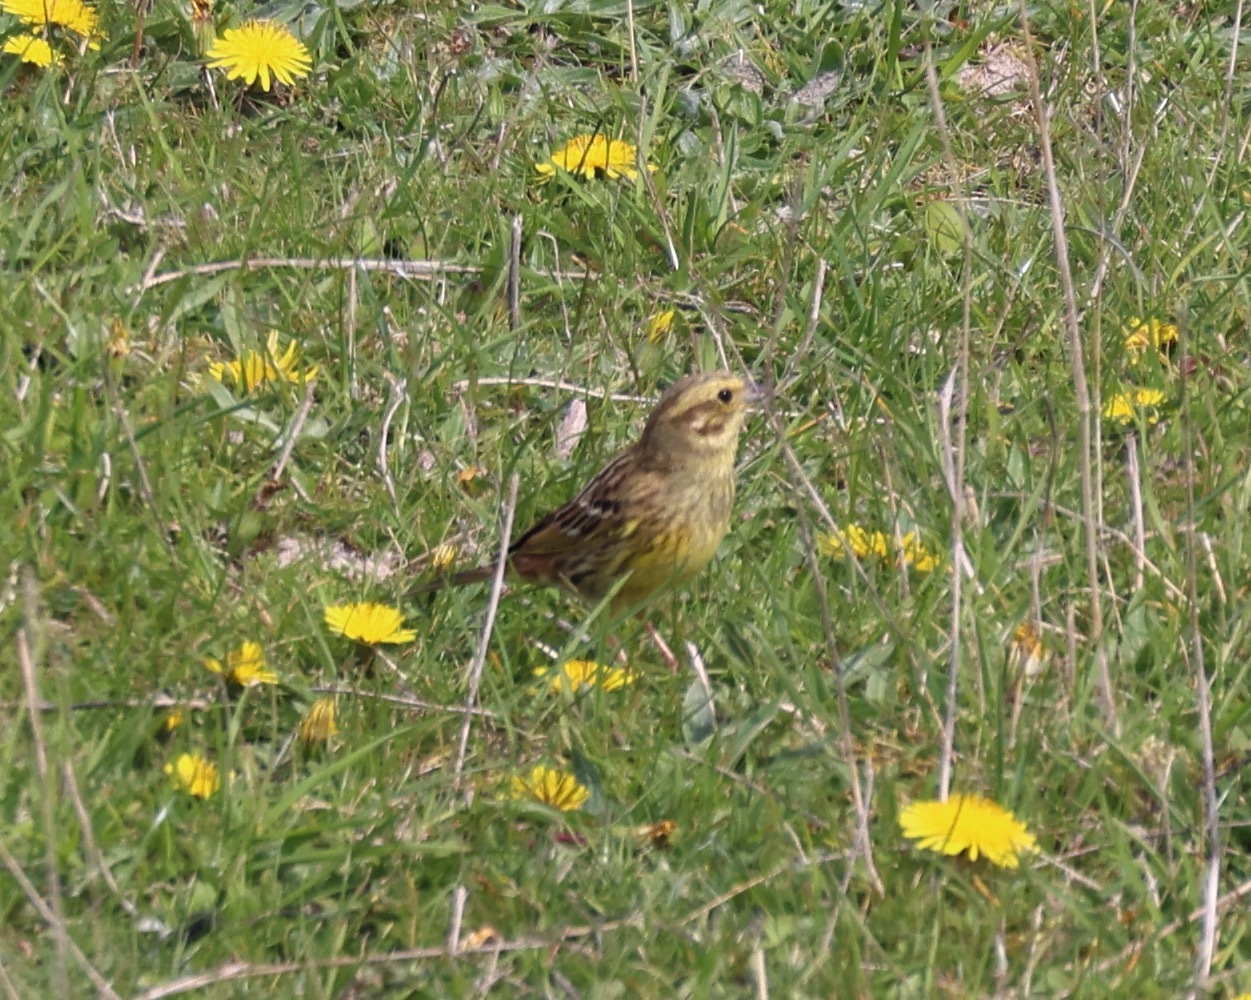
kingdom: Animalia
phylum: Chordata
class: Aves
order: Passeriformes
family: Emberizidae
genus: Emberiza
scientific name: Emberiza citrinella
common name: Yellowhammer
